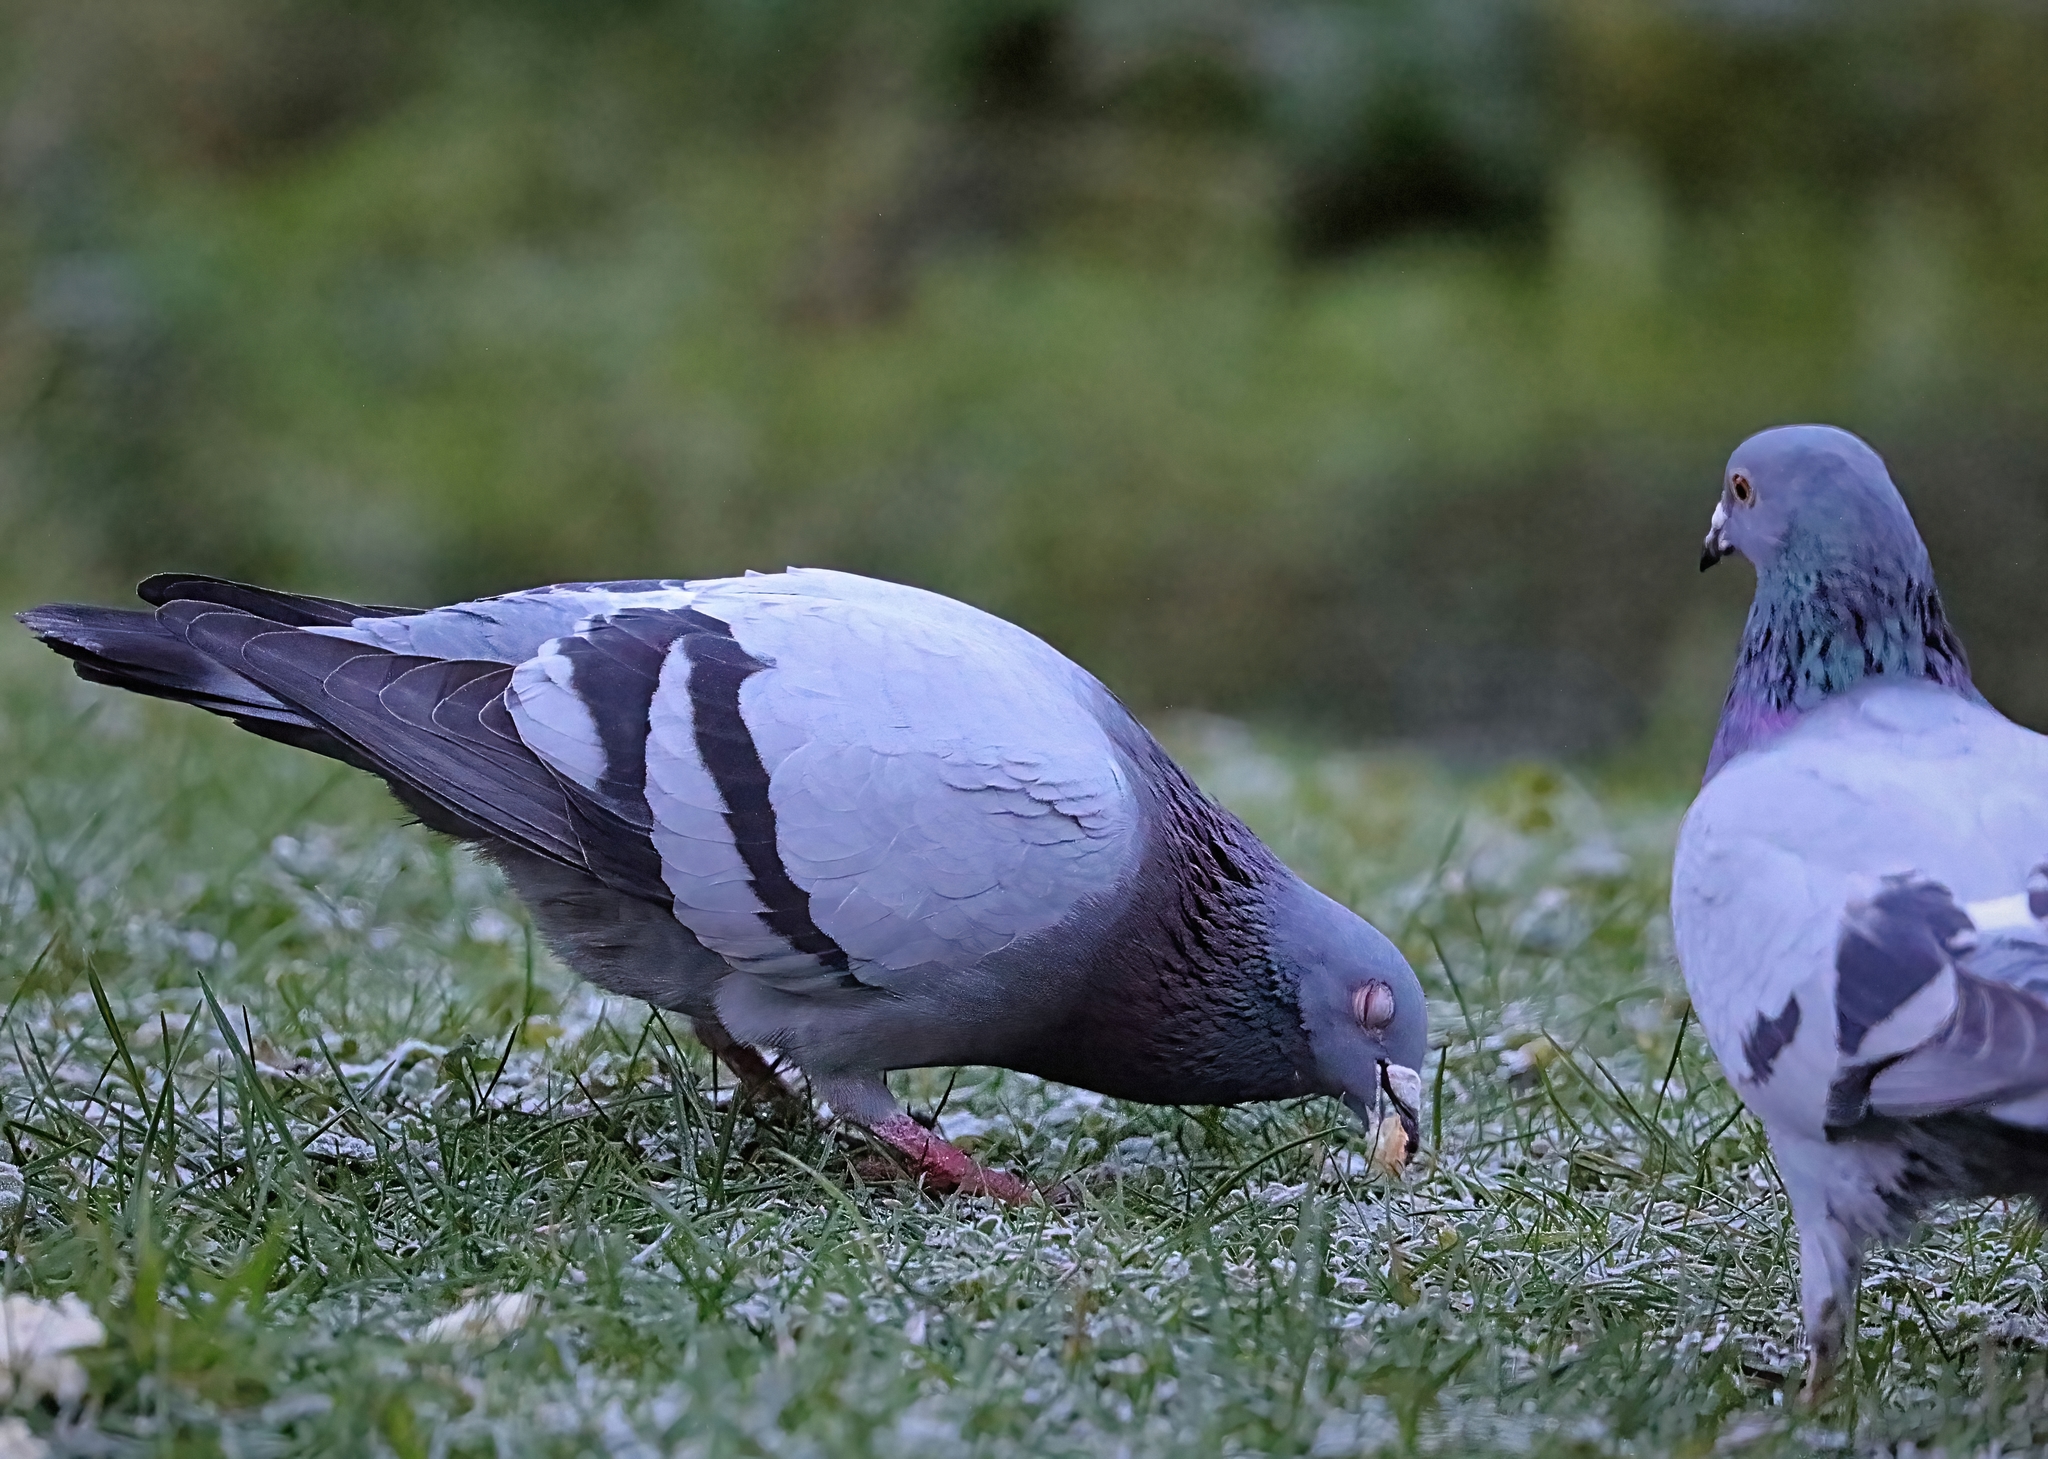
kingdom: Animalia
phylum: Chordata
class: Aves
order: Columbiformes
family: Columbidae
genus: Columba
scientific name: Columba livia
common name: Rock pigeon
